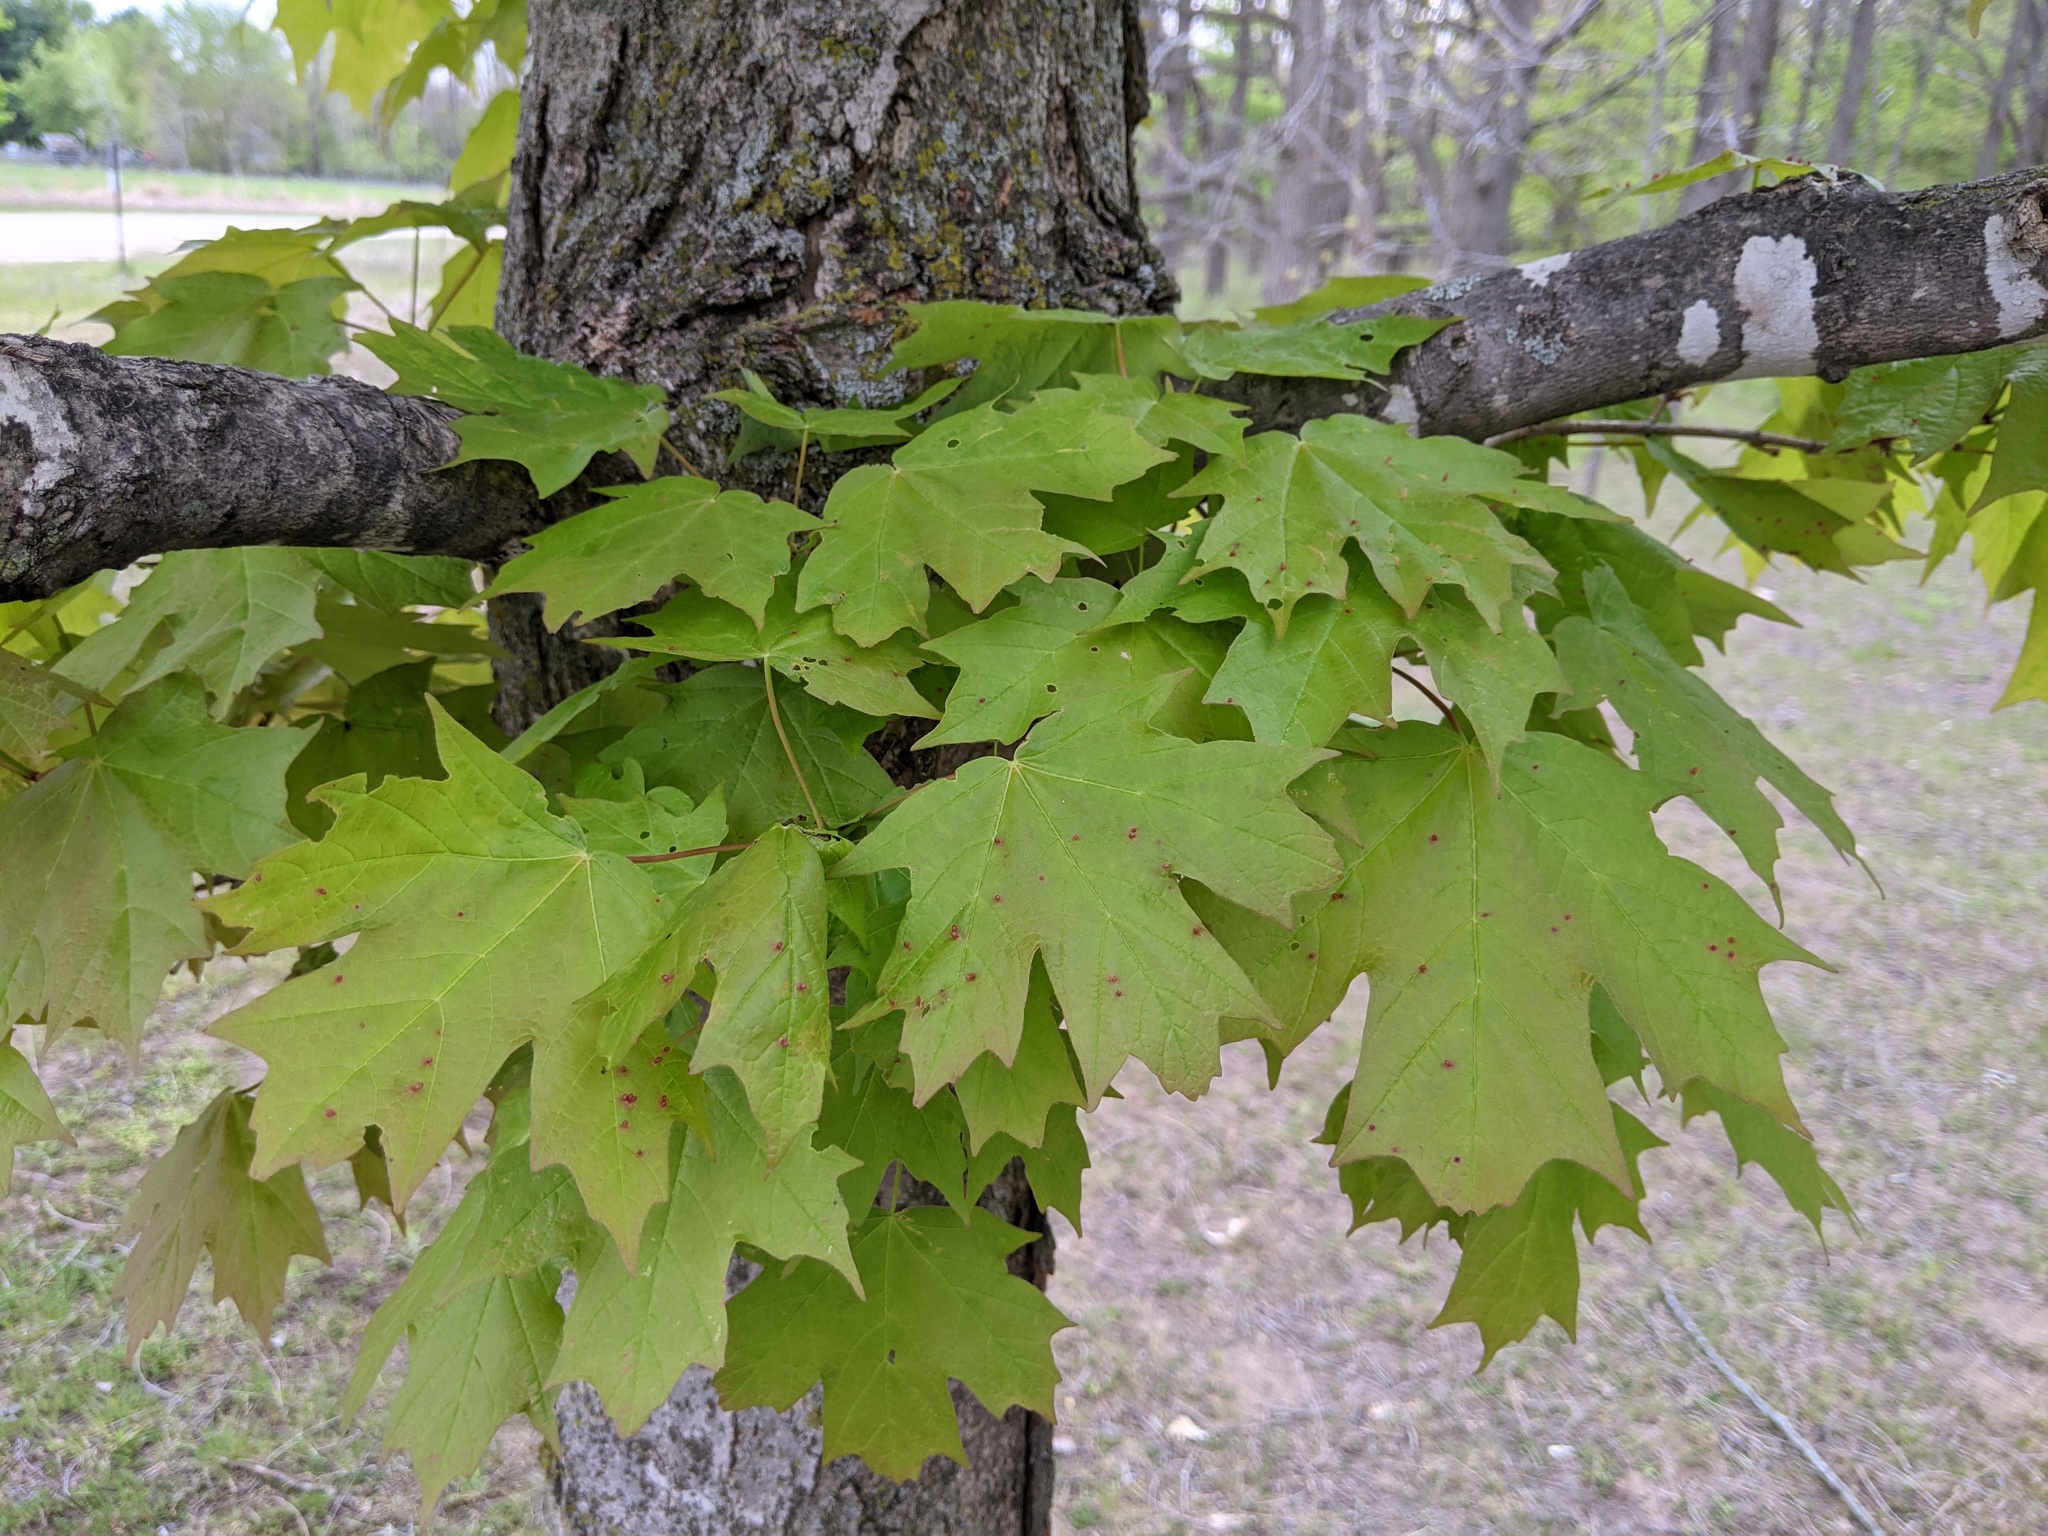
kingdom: Animalia
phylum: Arthropoda
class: Arachnida
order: Trombidiformes
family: Eriophyidae
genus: Vasates
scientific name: Vasates aceriscrumena
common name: Maple spindle gall mite
